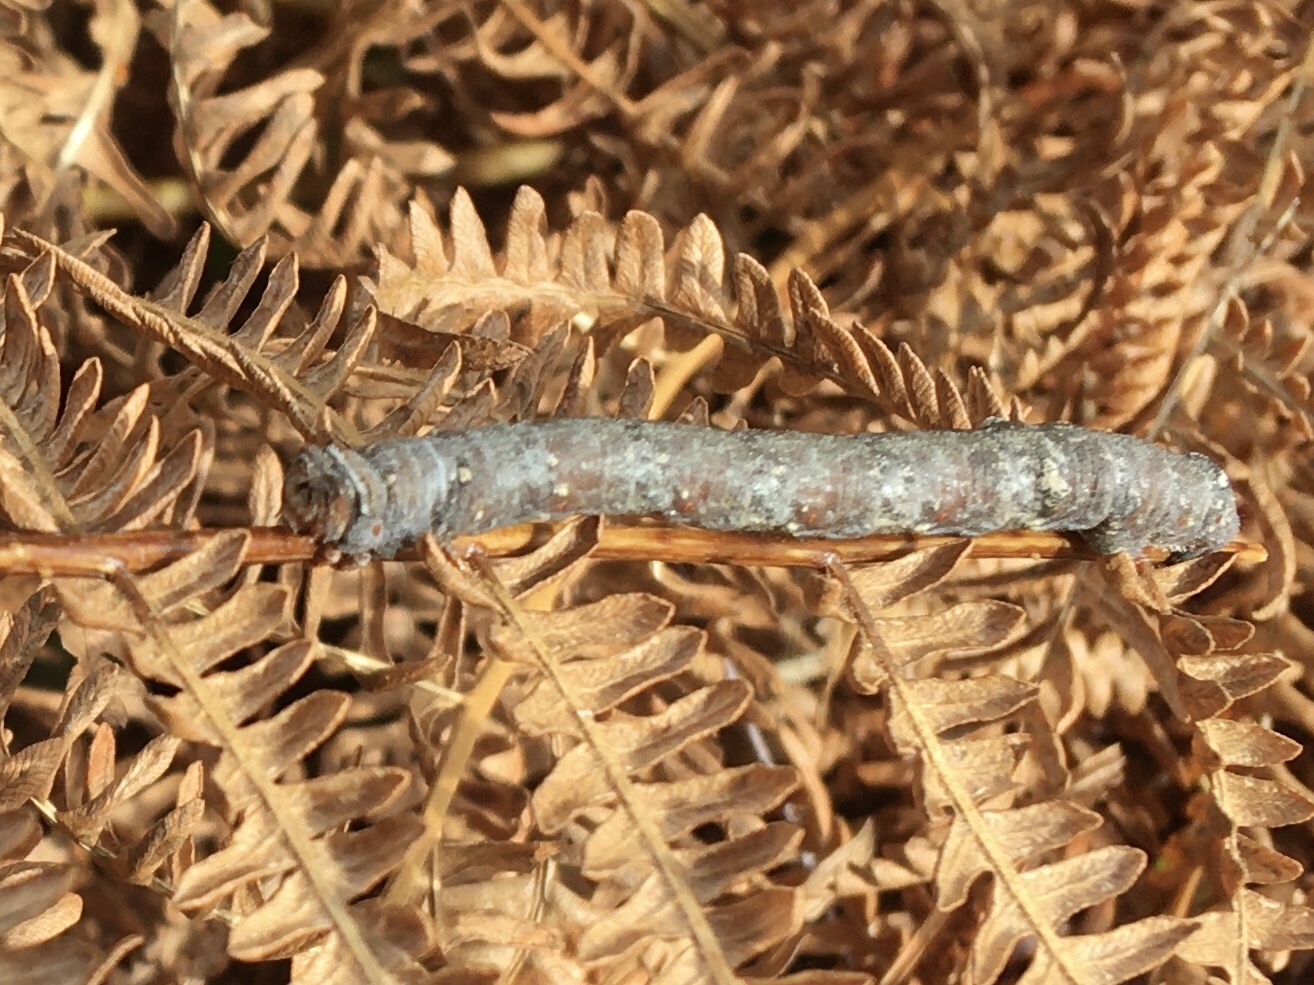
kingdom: Animalia
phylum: Arthropoda
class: Insecta
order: Lepidoptera
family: Geometridae
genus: Biston
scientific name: Biston betularia
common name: Peppered moth
